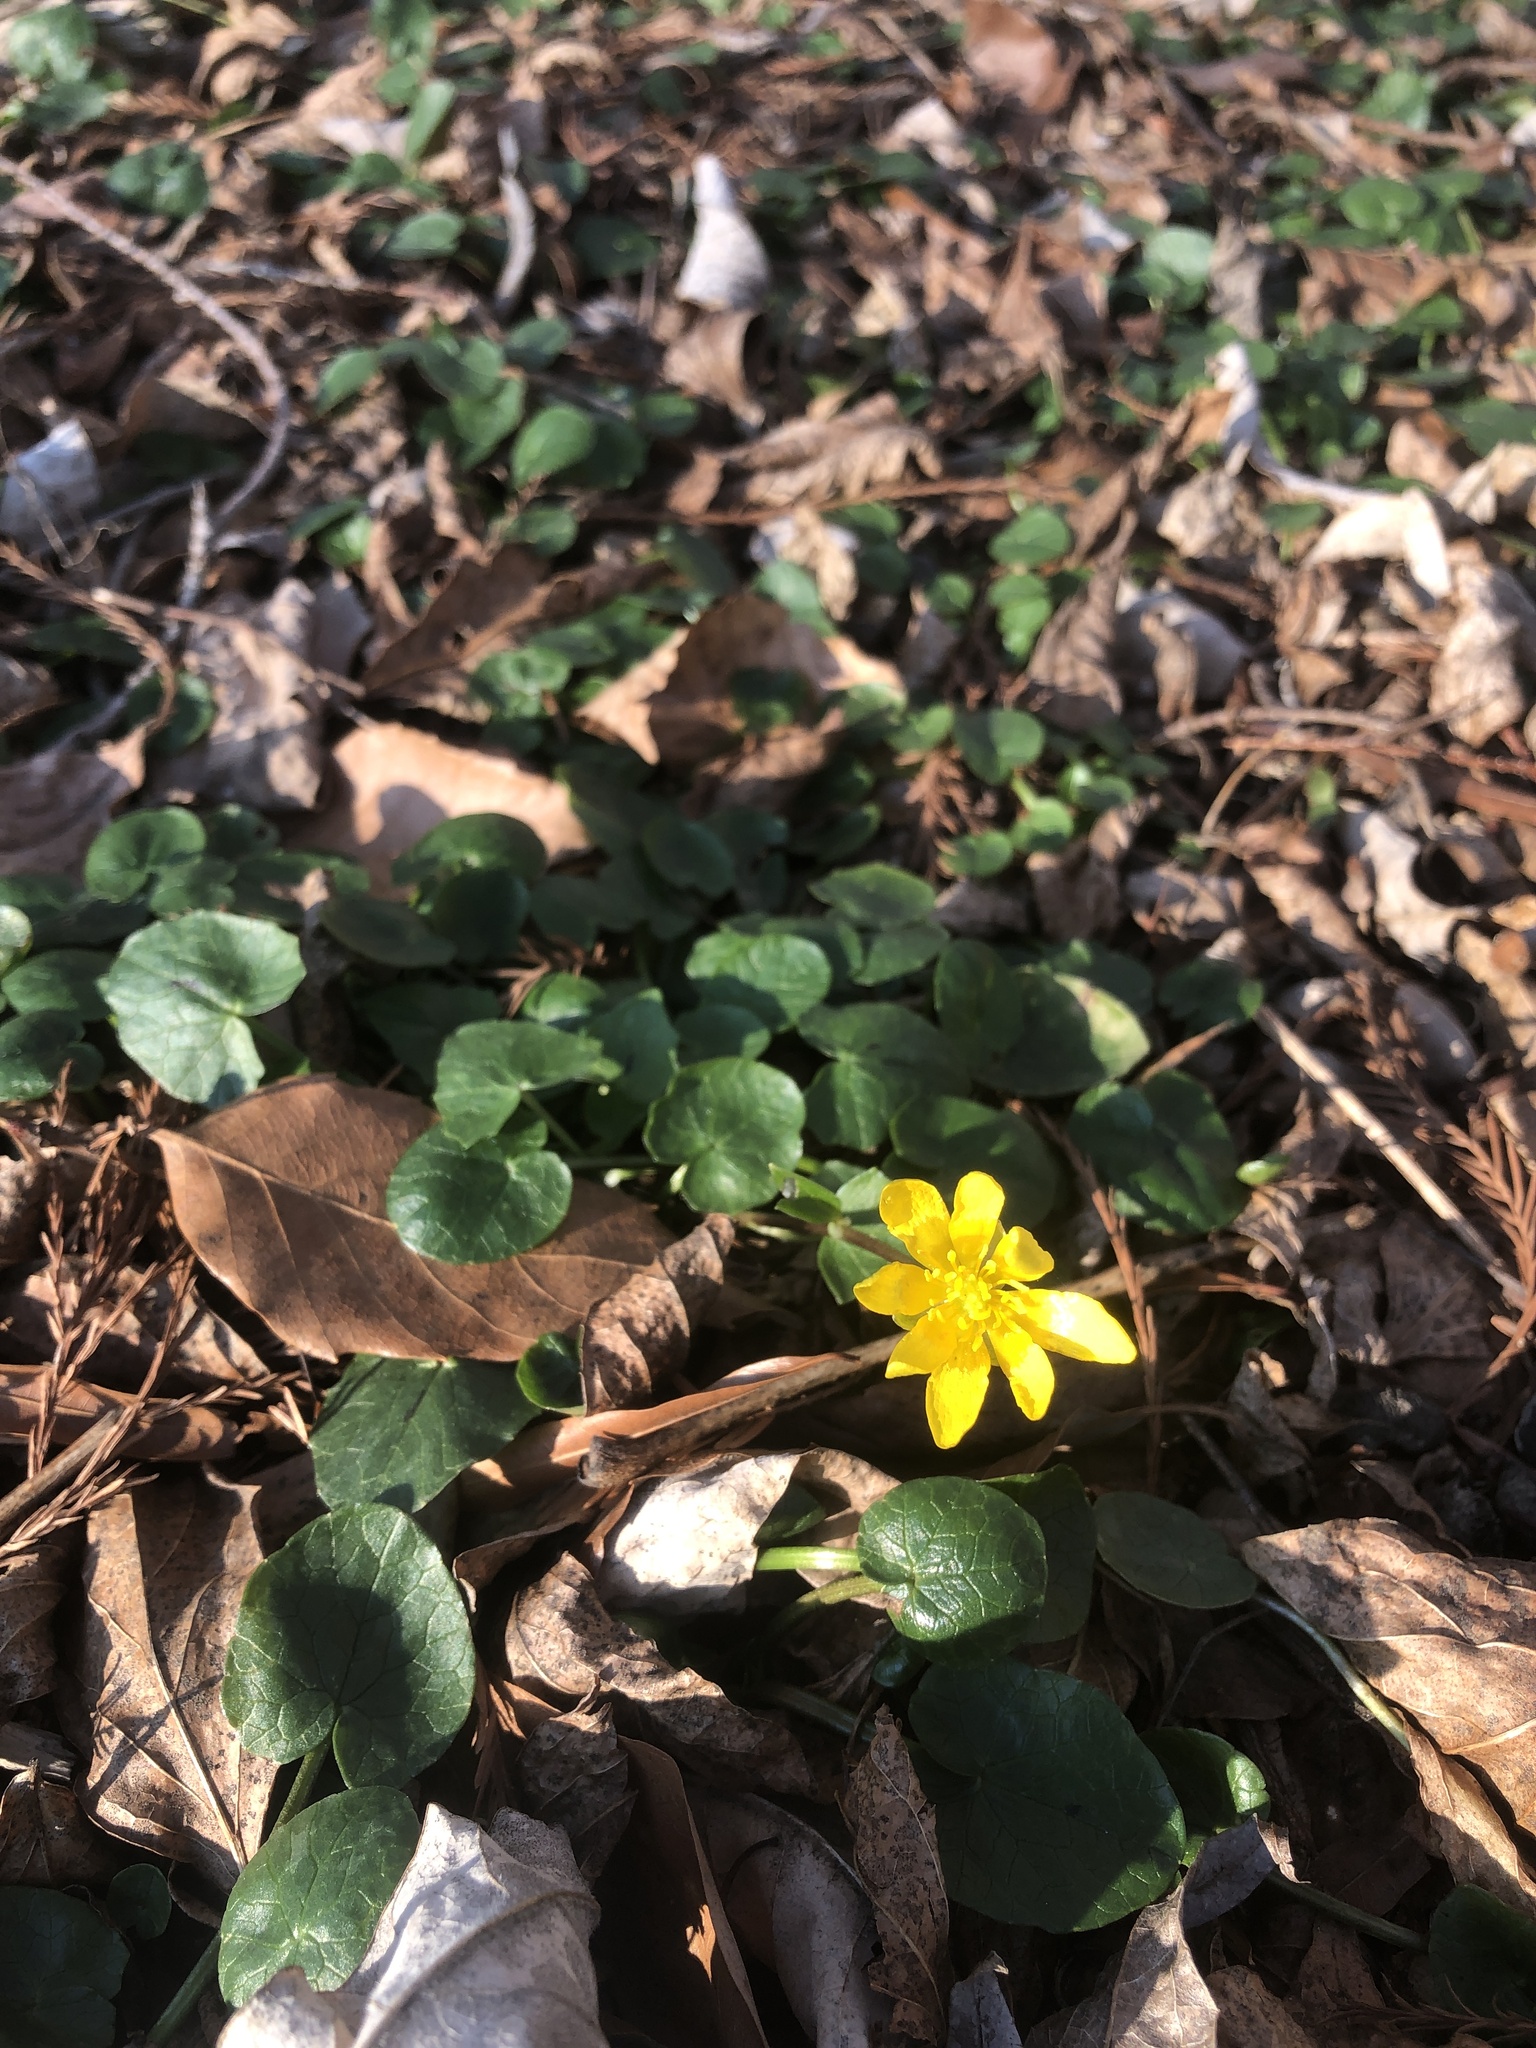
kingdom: Plantae
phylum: Tracheophyta
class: Magnoliopsida
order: Ranunculales
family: Ranunculaceae
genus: Ficaria
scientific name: Ficaria verna
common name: Lesser celandine
